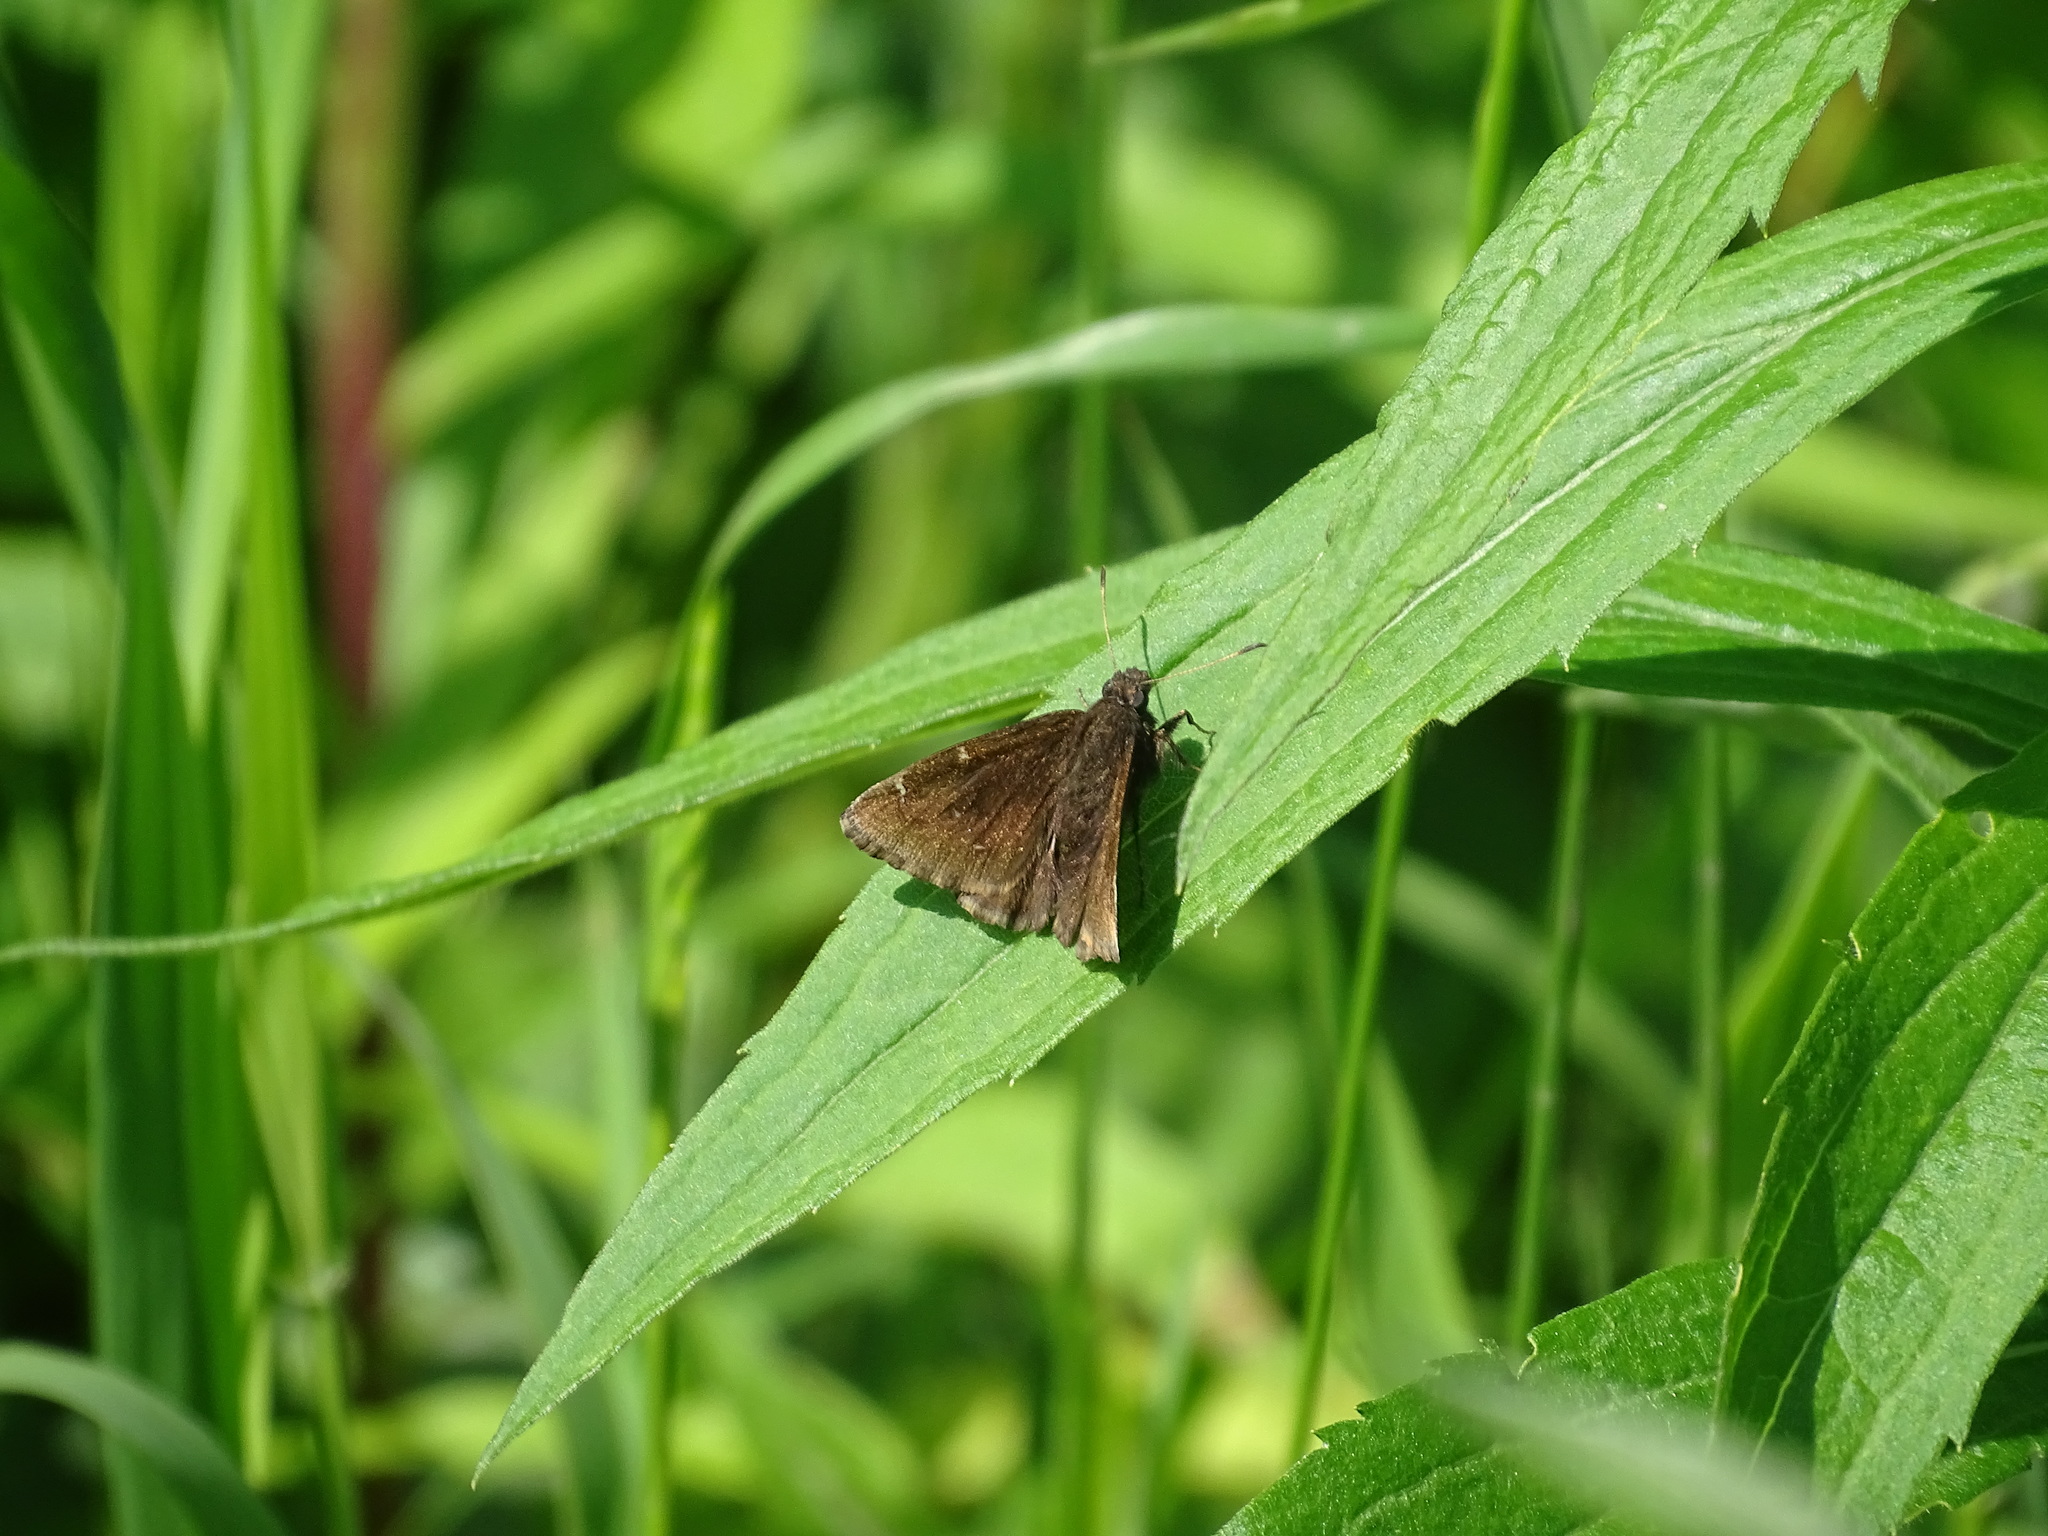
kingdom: Animalia
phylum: Arthropoda
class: Insecta
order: Lepidoptera
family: Hesperiidae
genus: Thorybes
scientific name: Thorybes pylades
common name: Northern cloudywing
